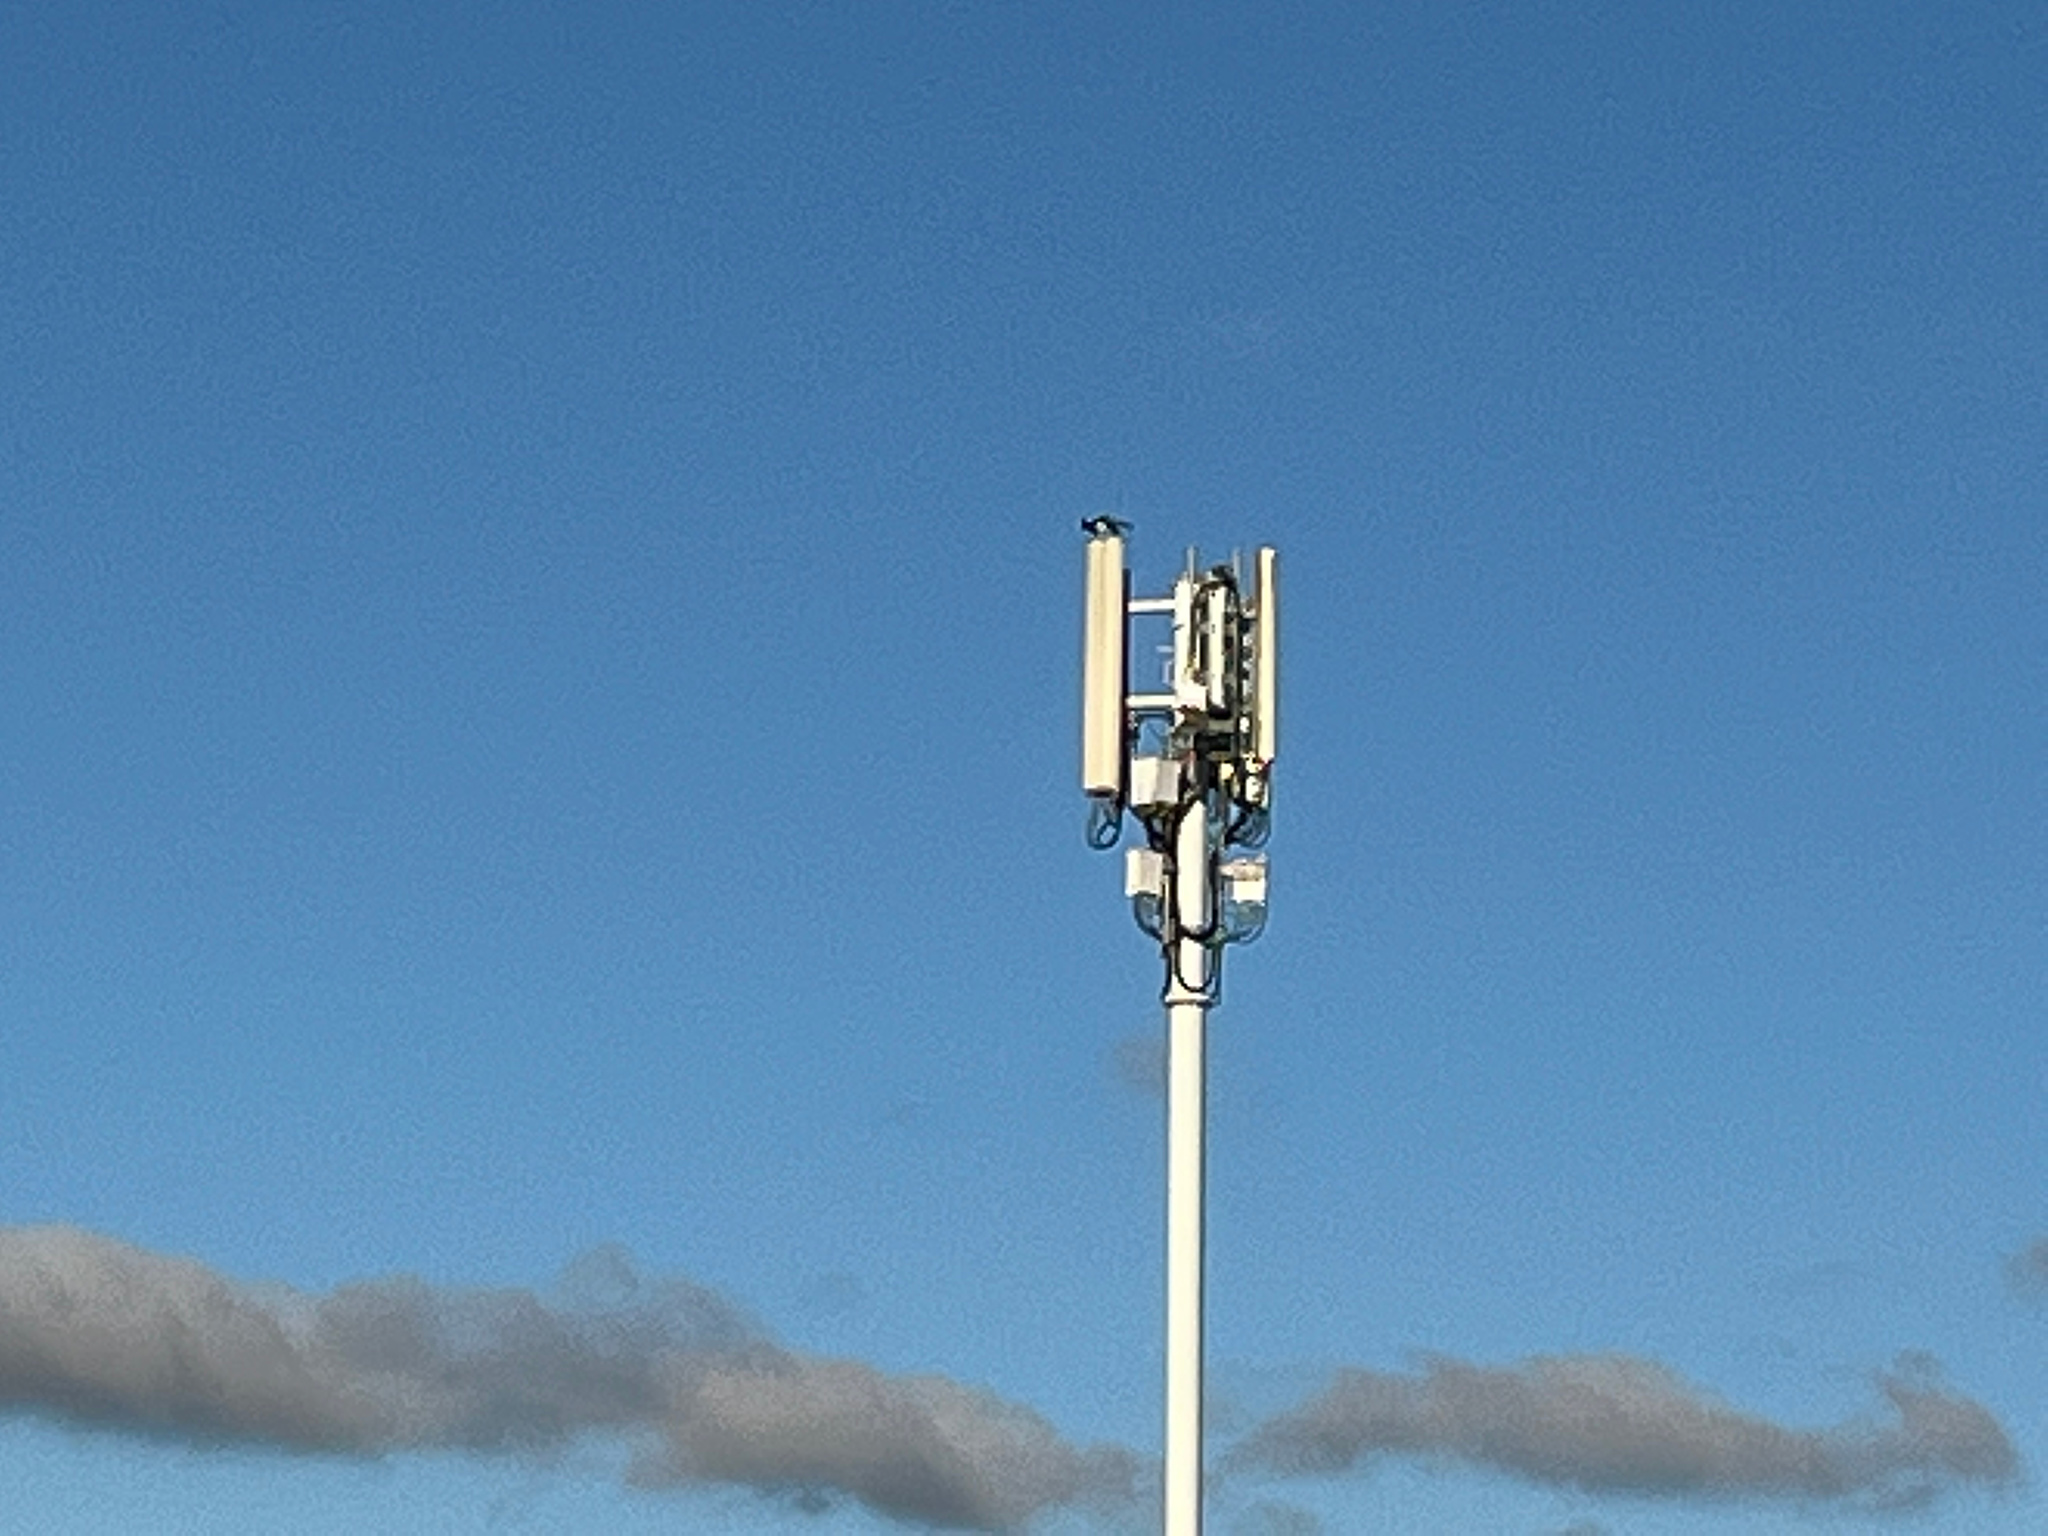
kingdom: Animalia
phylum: Chordata
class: Aves
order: Passeriformes
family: Cracticidae
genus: Gymnorhina
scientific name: Gymnorhina tibicen
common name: Australian magpie
